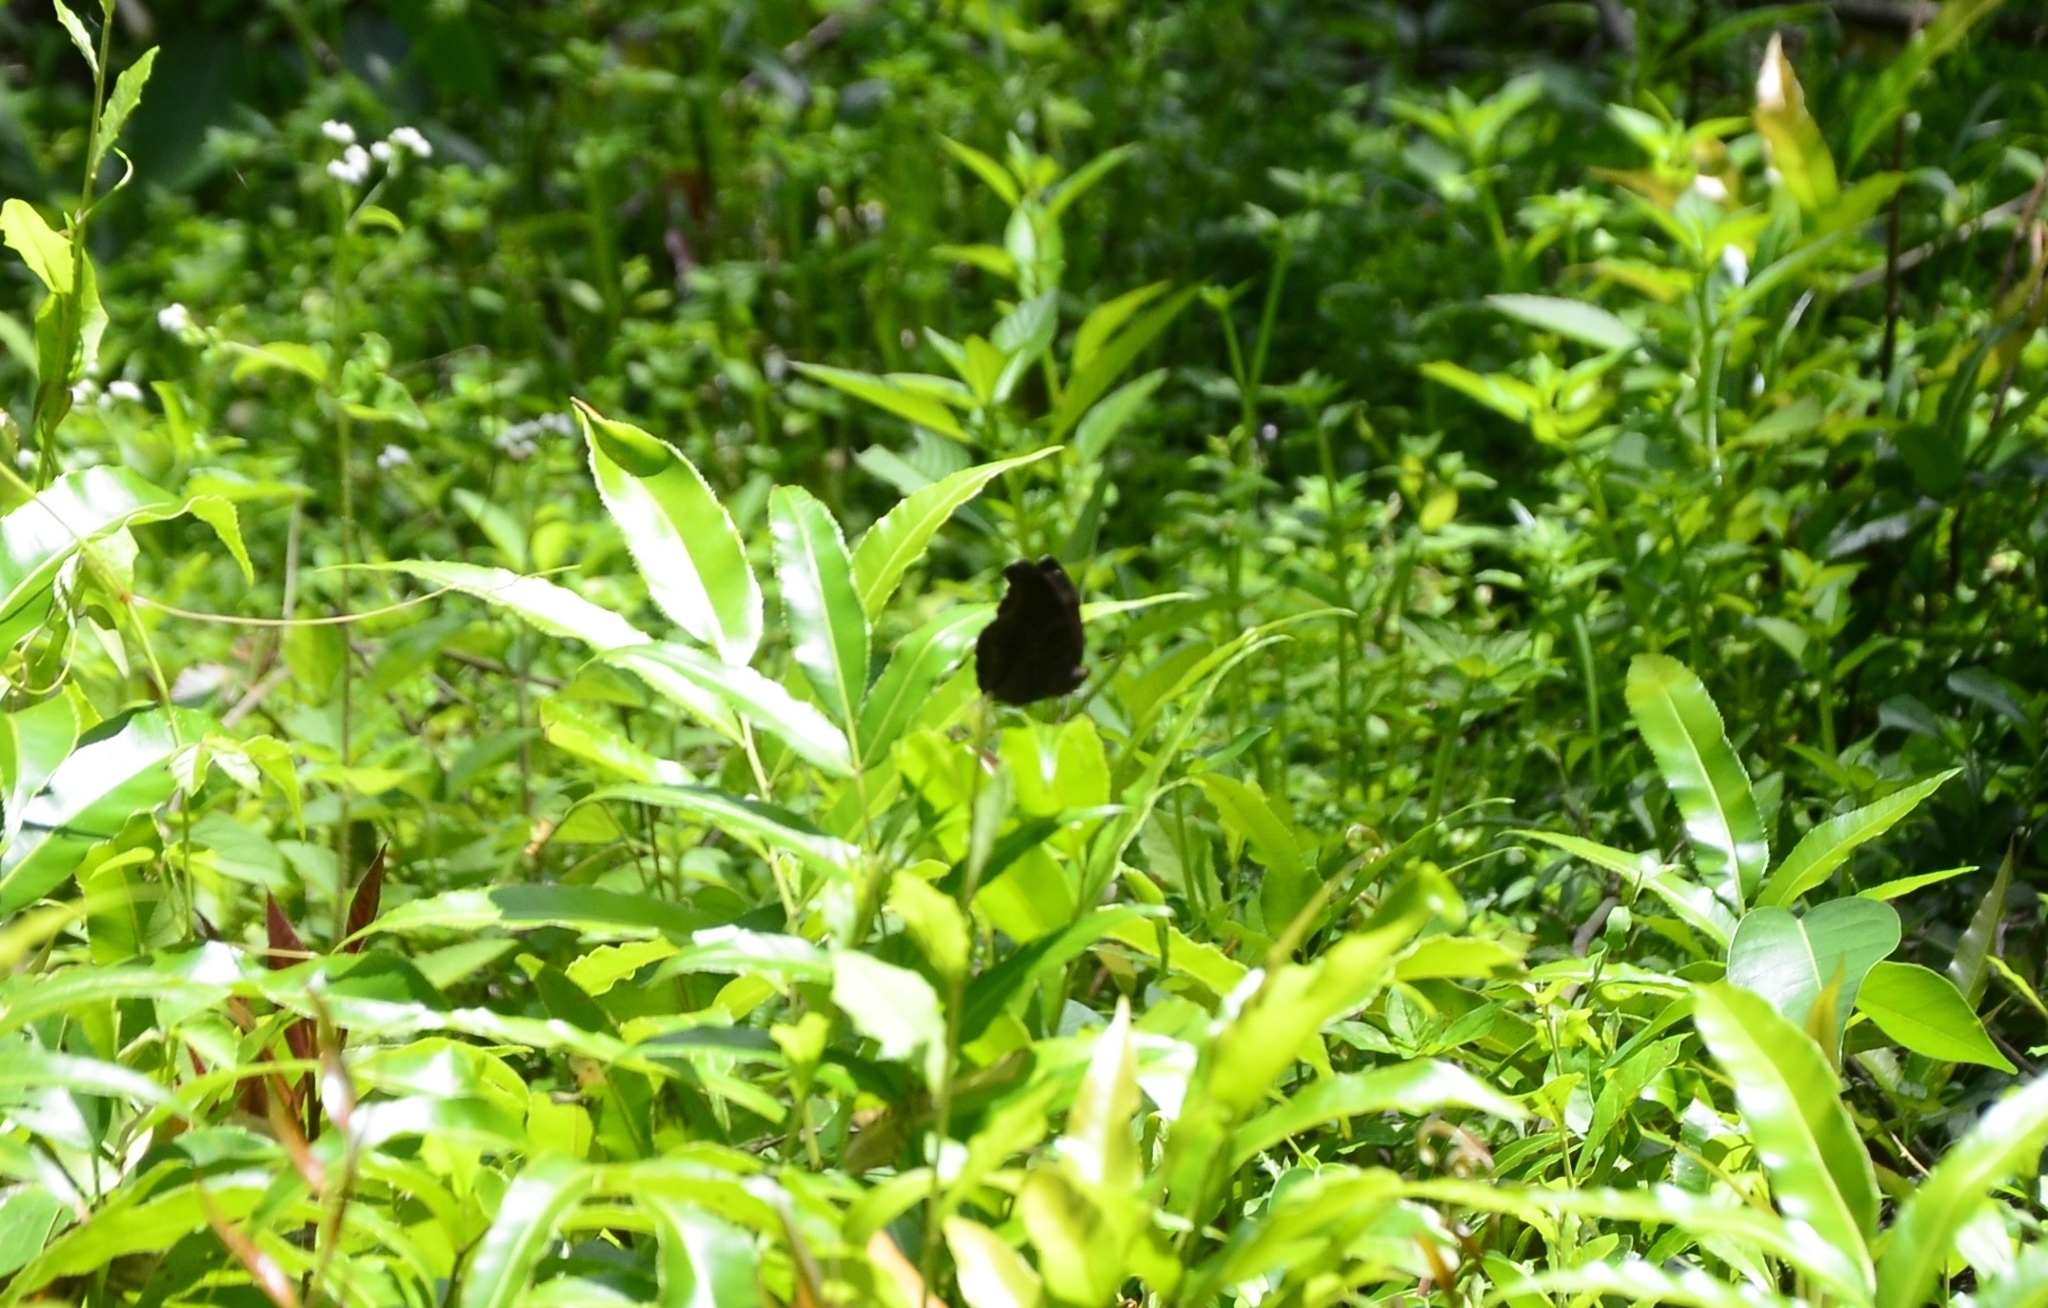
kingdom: Animalia
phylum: Arthropoda
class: Insecta
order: Lepidoptera
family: Nymphalidae
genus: Junonia
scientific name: Junonia iphita
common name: Chocolate pansy
